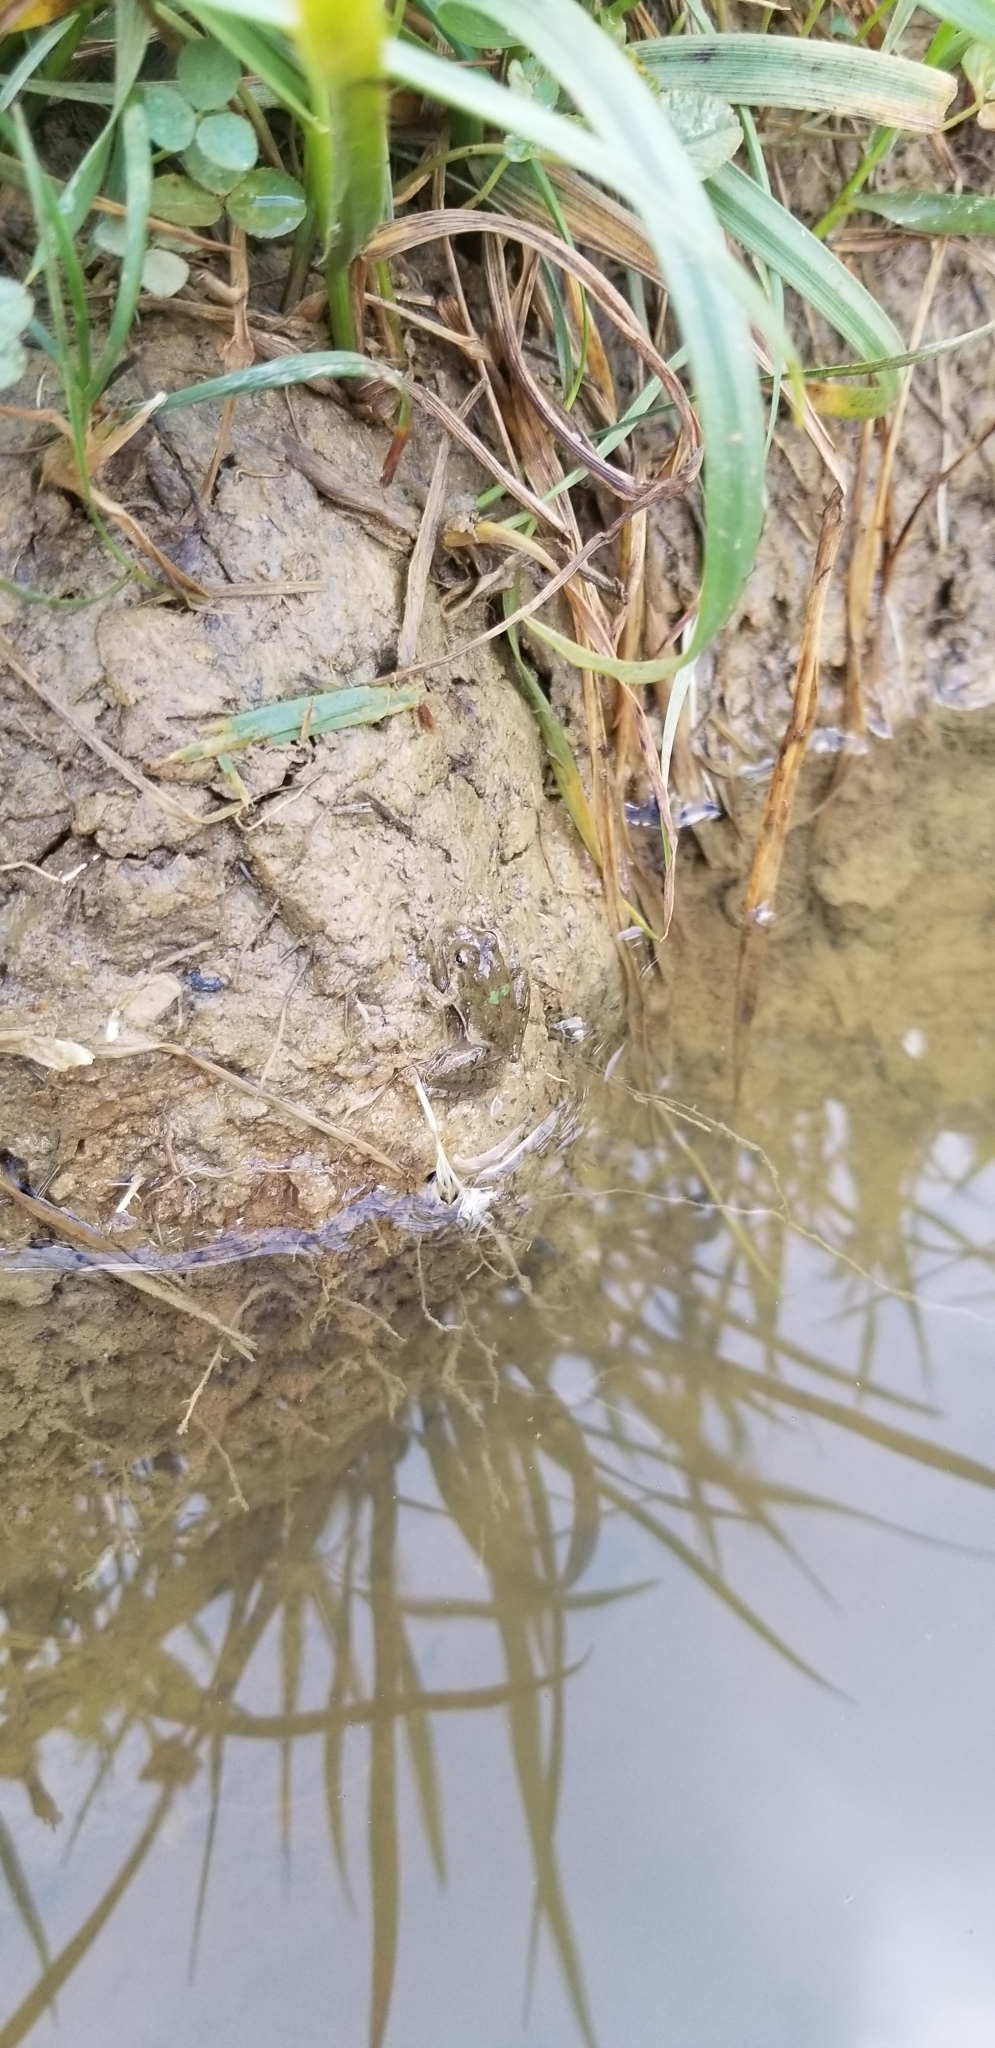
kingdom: Animalia
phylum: Chordata
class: Amphibia
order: Anura
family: Hylidae
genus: Acris
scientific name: Acris blanchardi
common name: Blanchard's cricket frog
